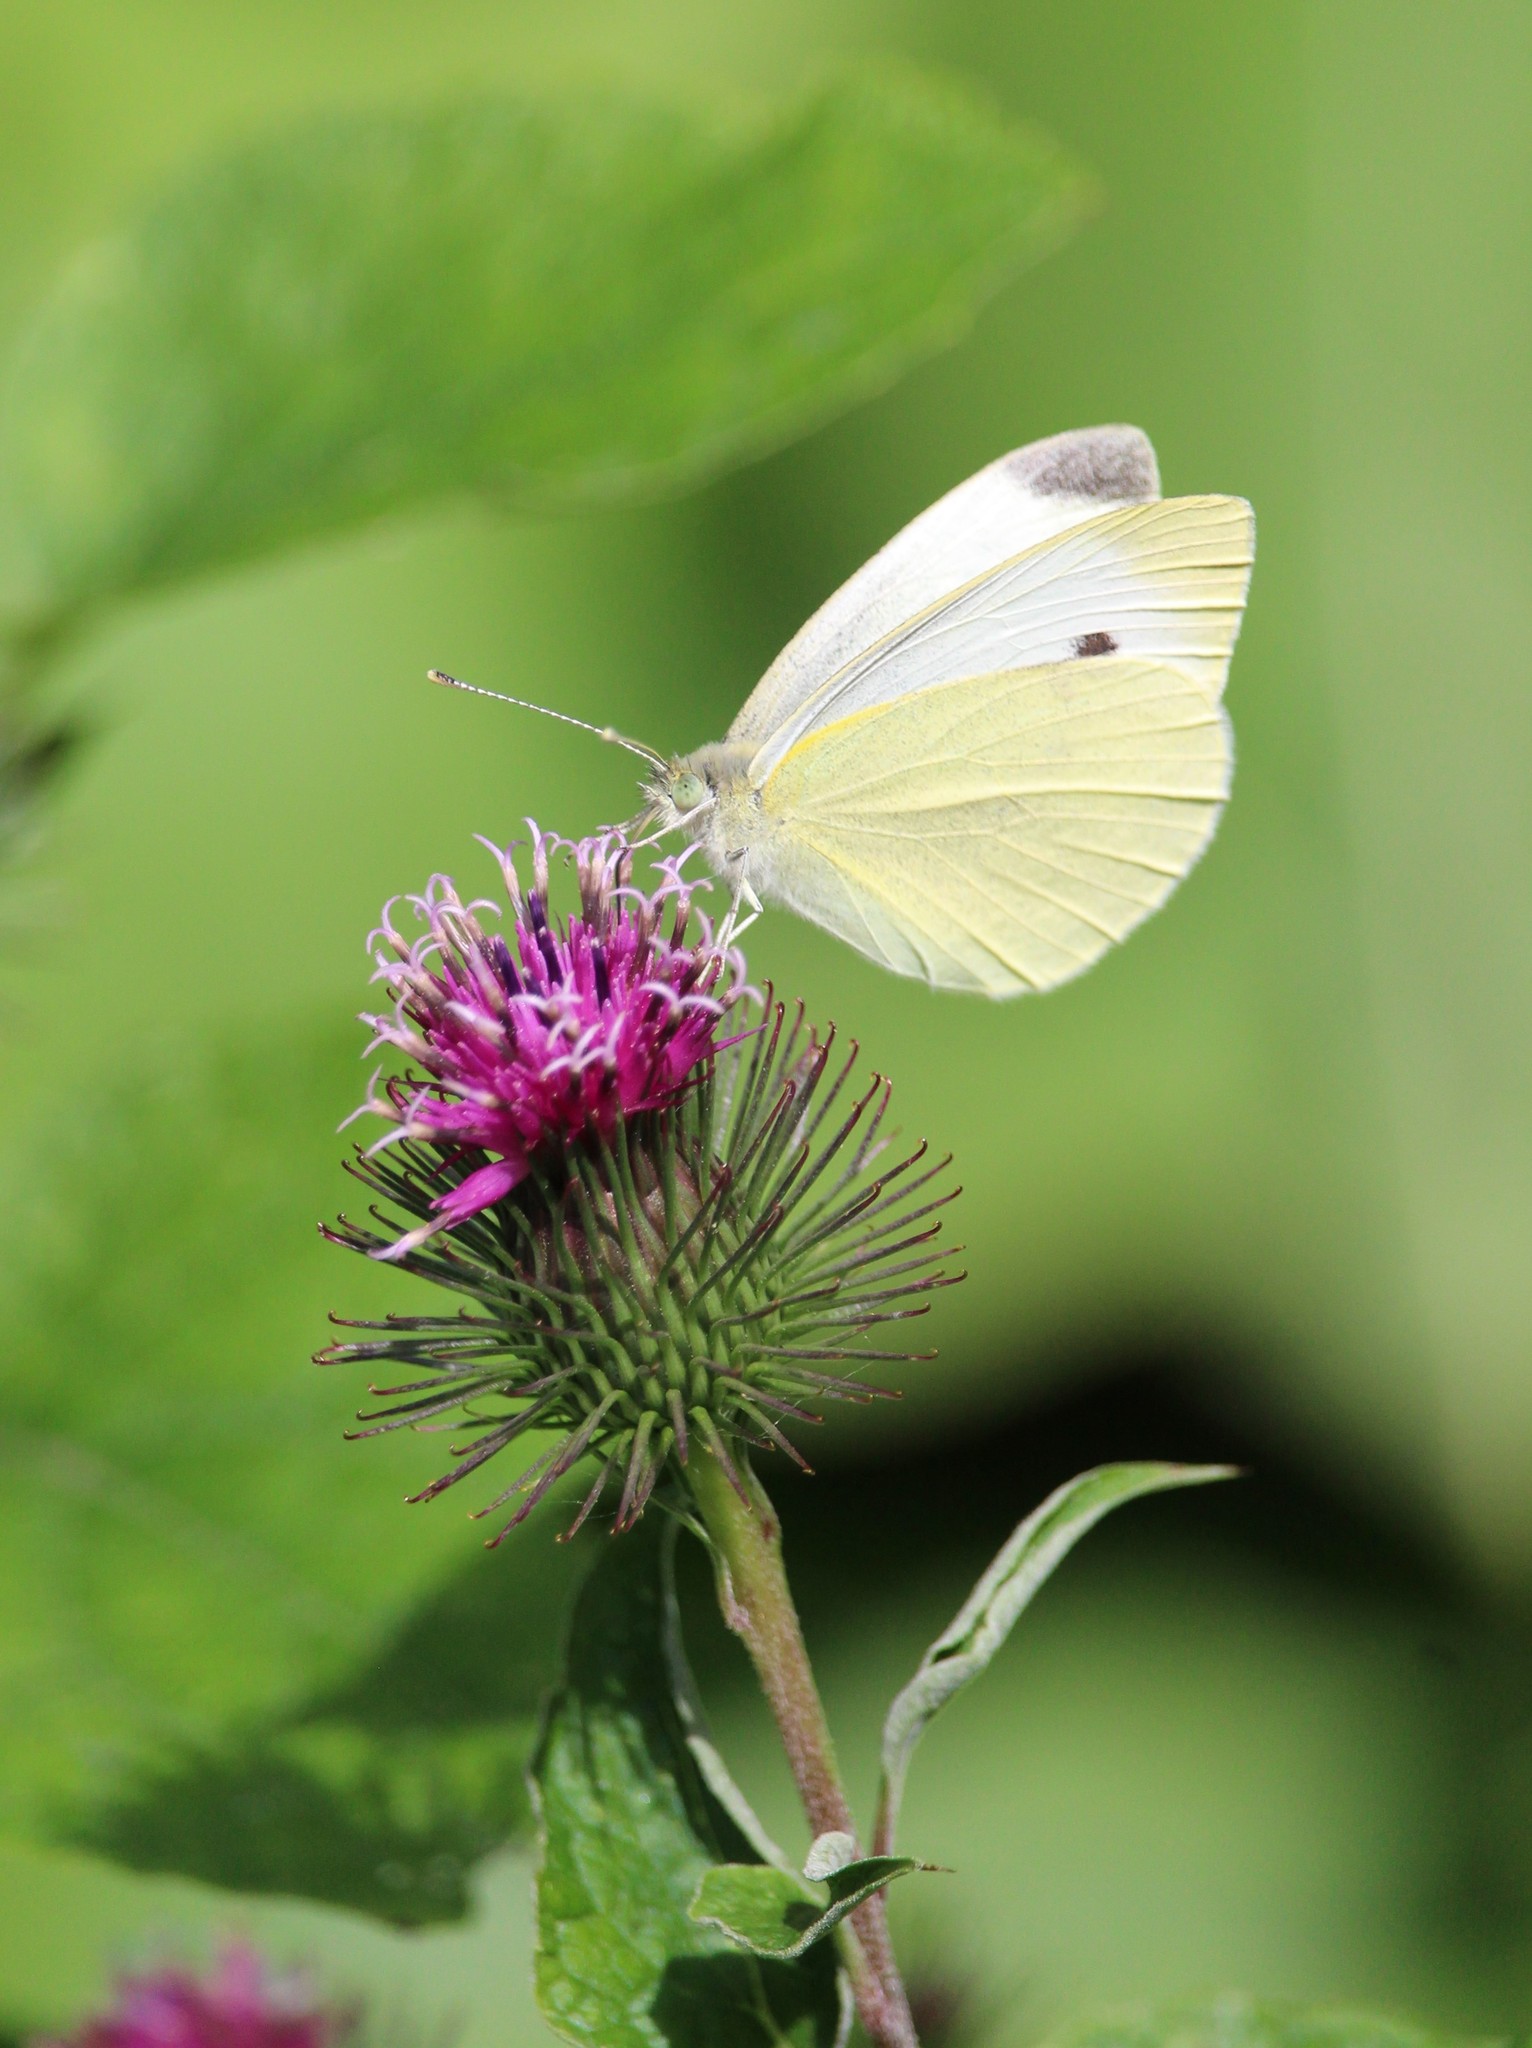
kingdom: Animalia
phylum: Arthropoda
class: Insecta
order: Lepidoptera
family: Pieridae
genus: Pieris
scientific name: Pieris rapae
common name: Small white
